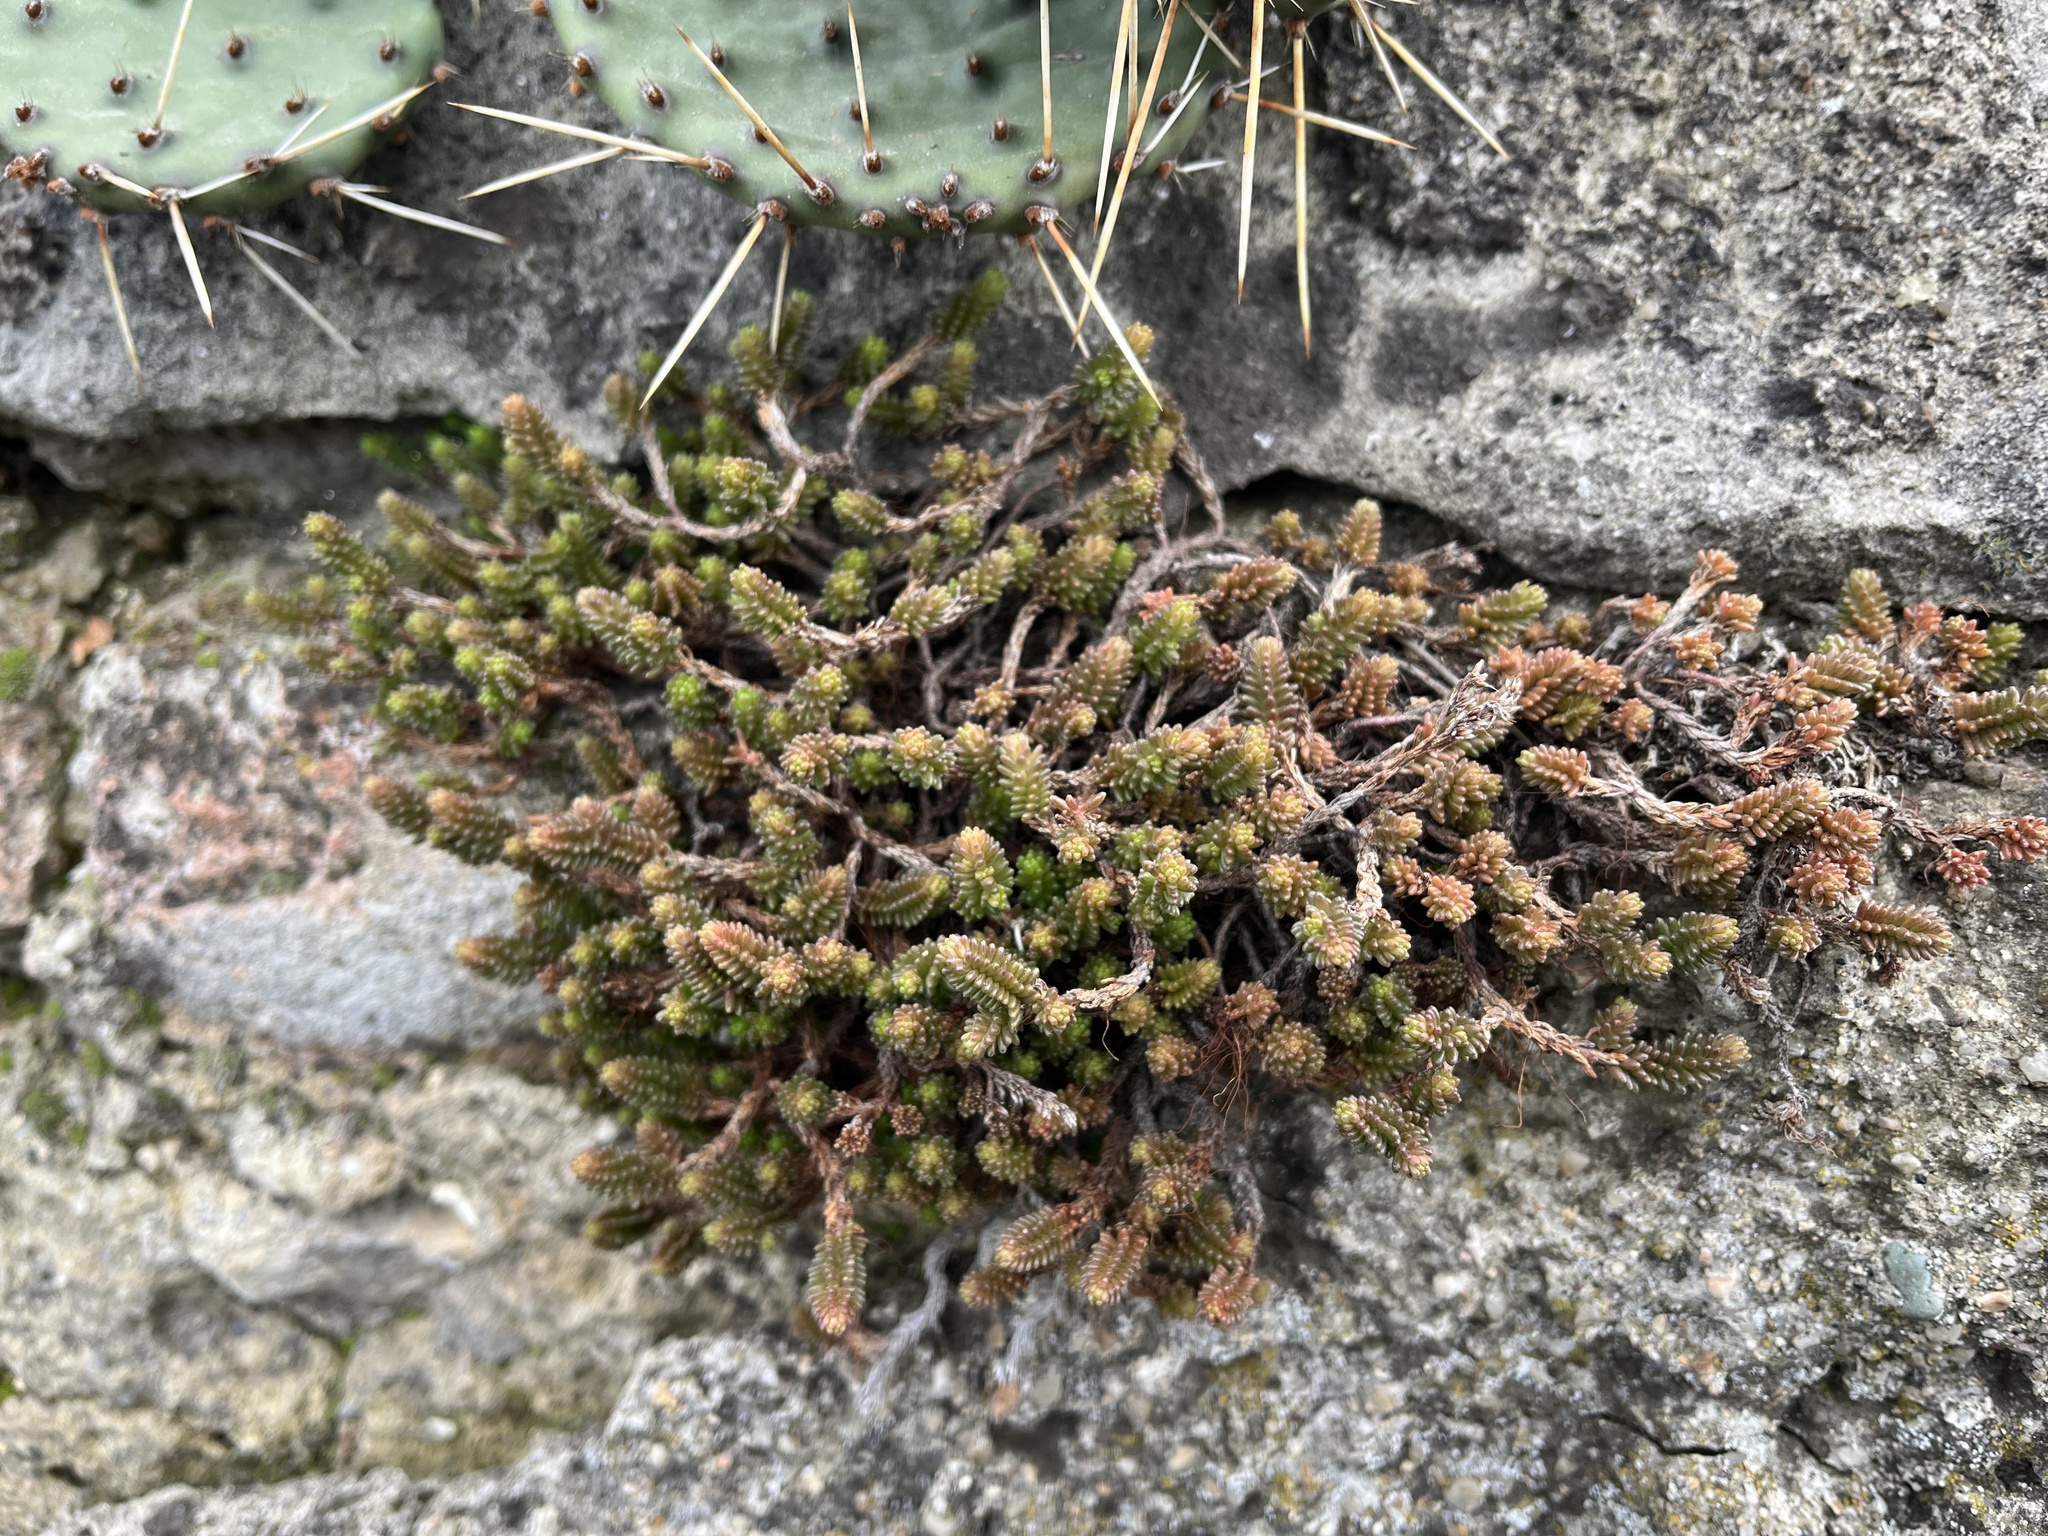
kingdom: Plantae
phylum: Tracheophyta
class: Magnoliopsida
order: Saxifragales
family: Crassulaceae
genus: Sedum
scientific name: Sedum sexangulare
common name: Tasteless stonecrop
